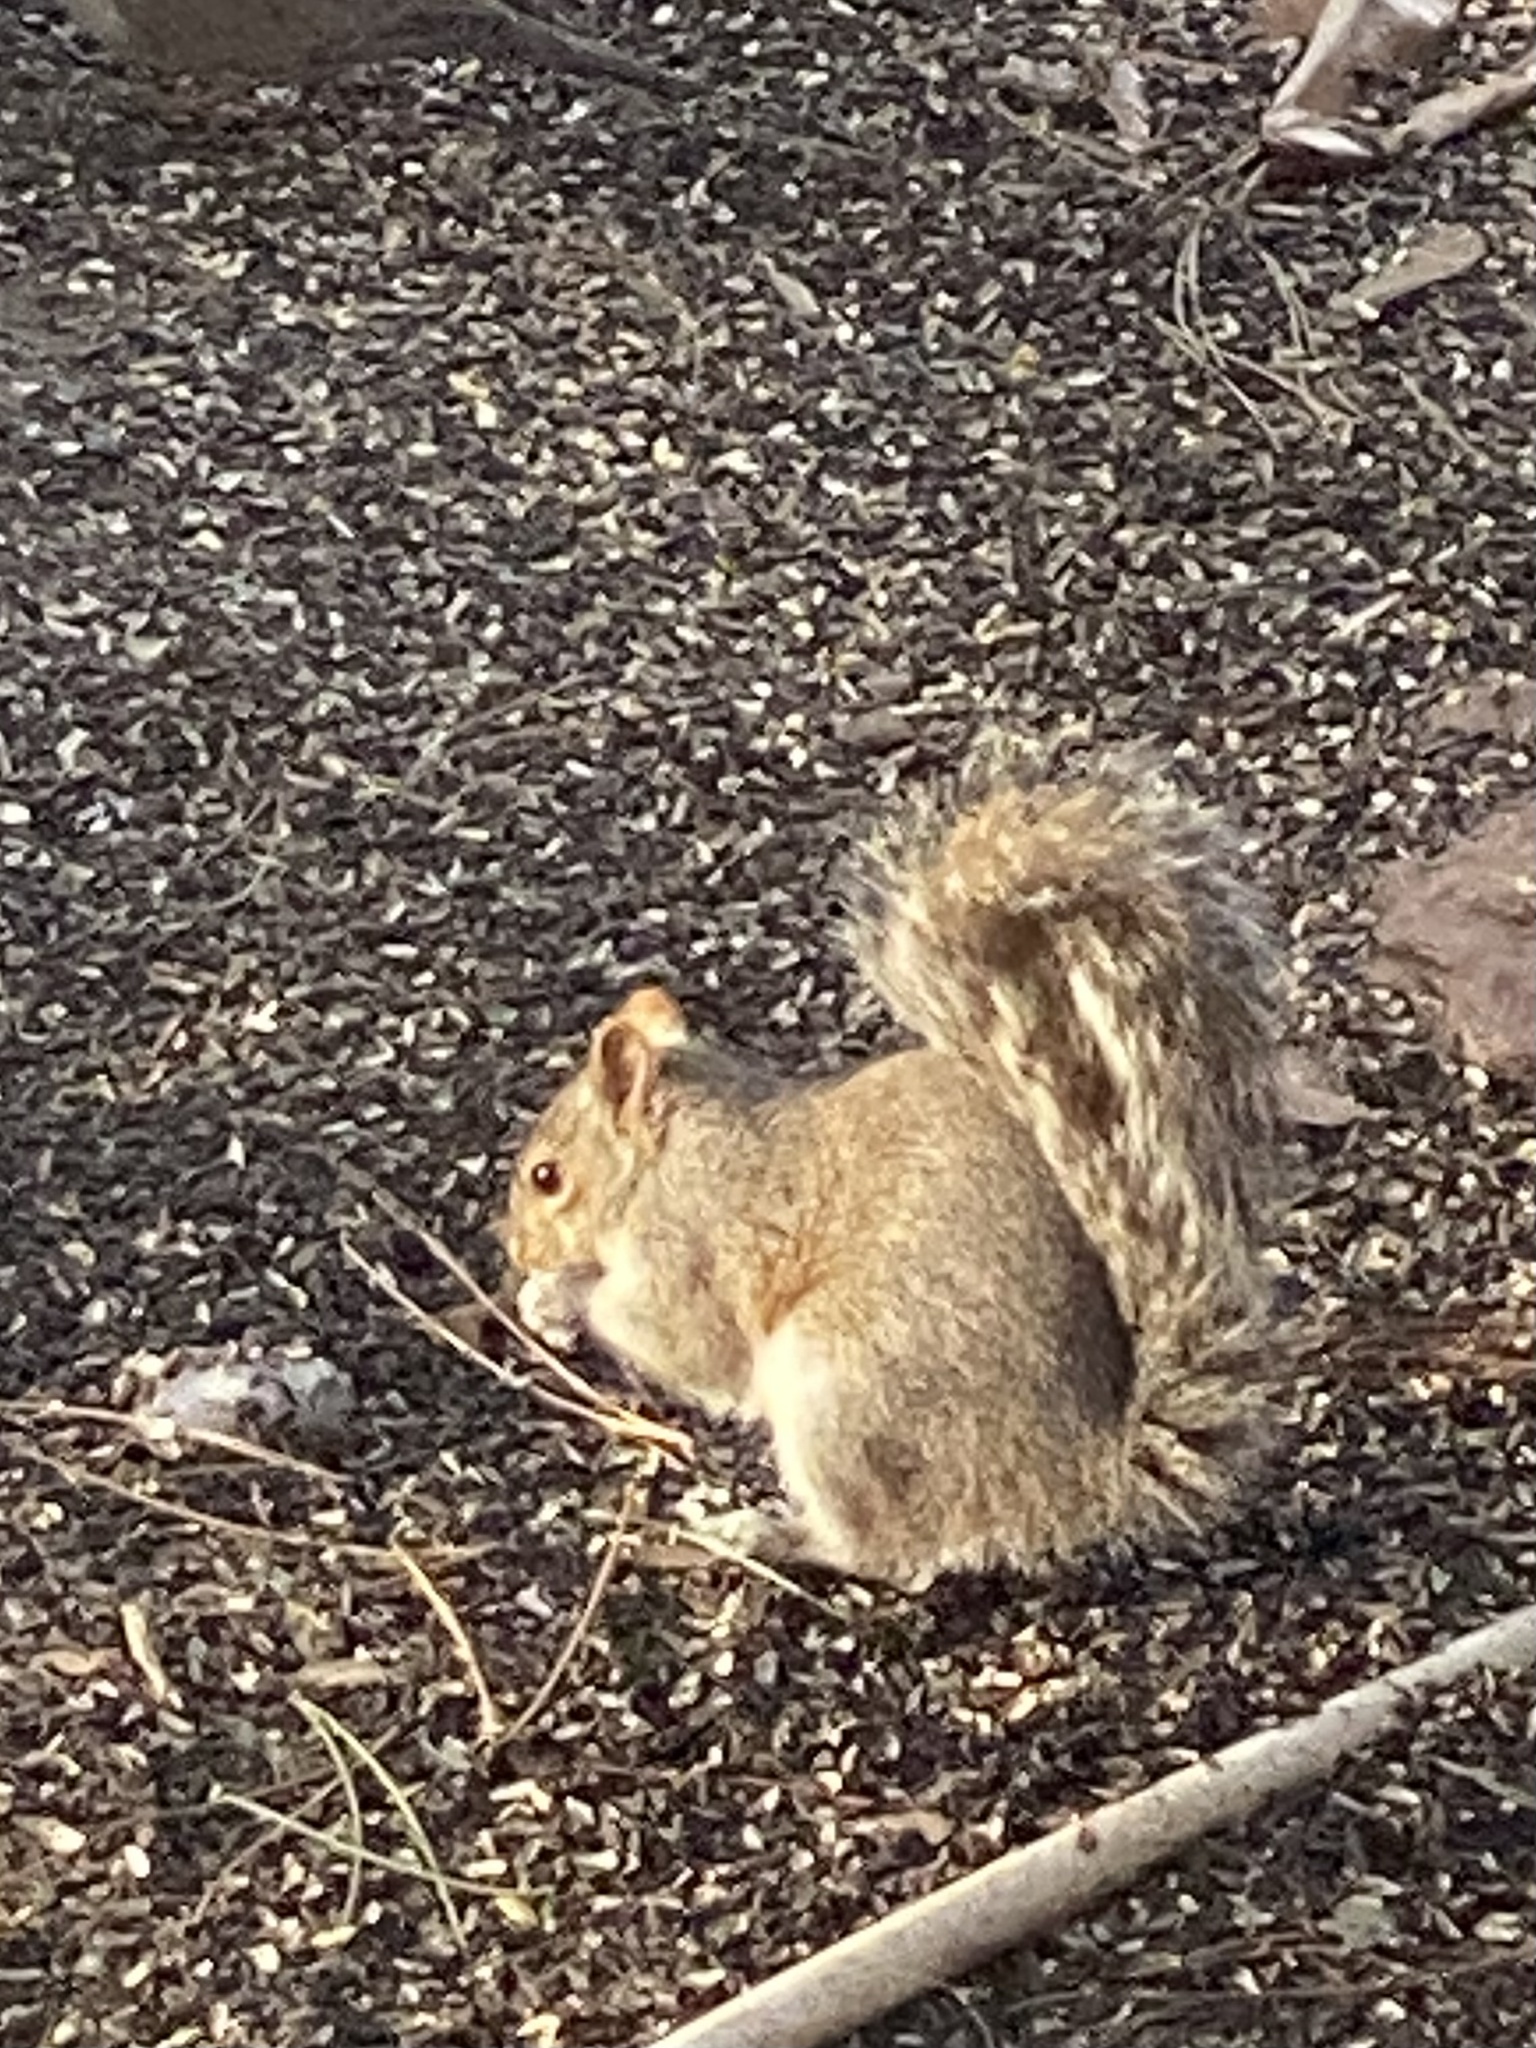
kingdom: Animalia
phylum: Chordata
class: Mammalia
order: Rodentia
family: Sciuridae
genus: Sciurus
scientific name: Sciurus carolinensis
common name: Eastern gray squirrel
